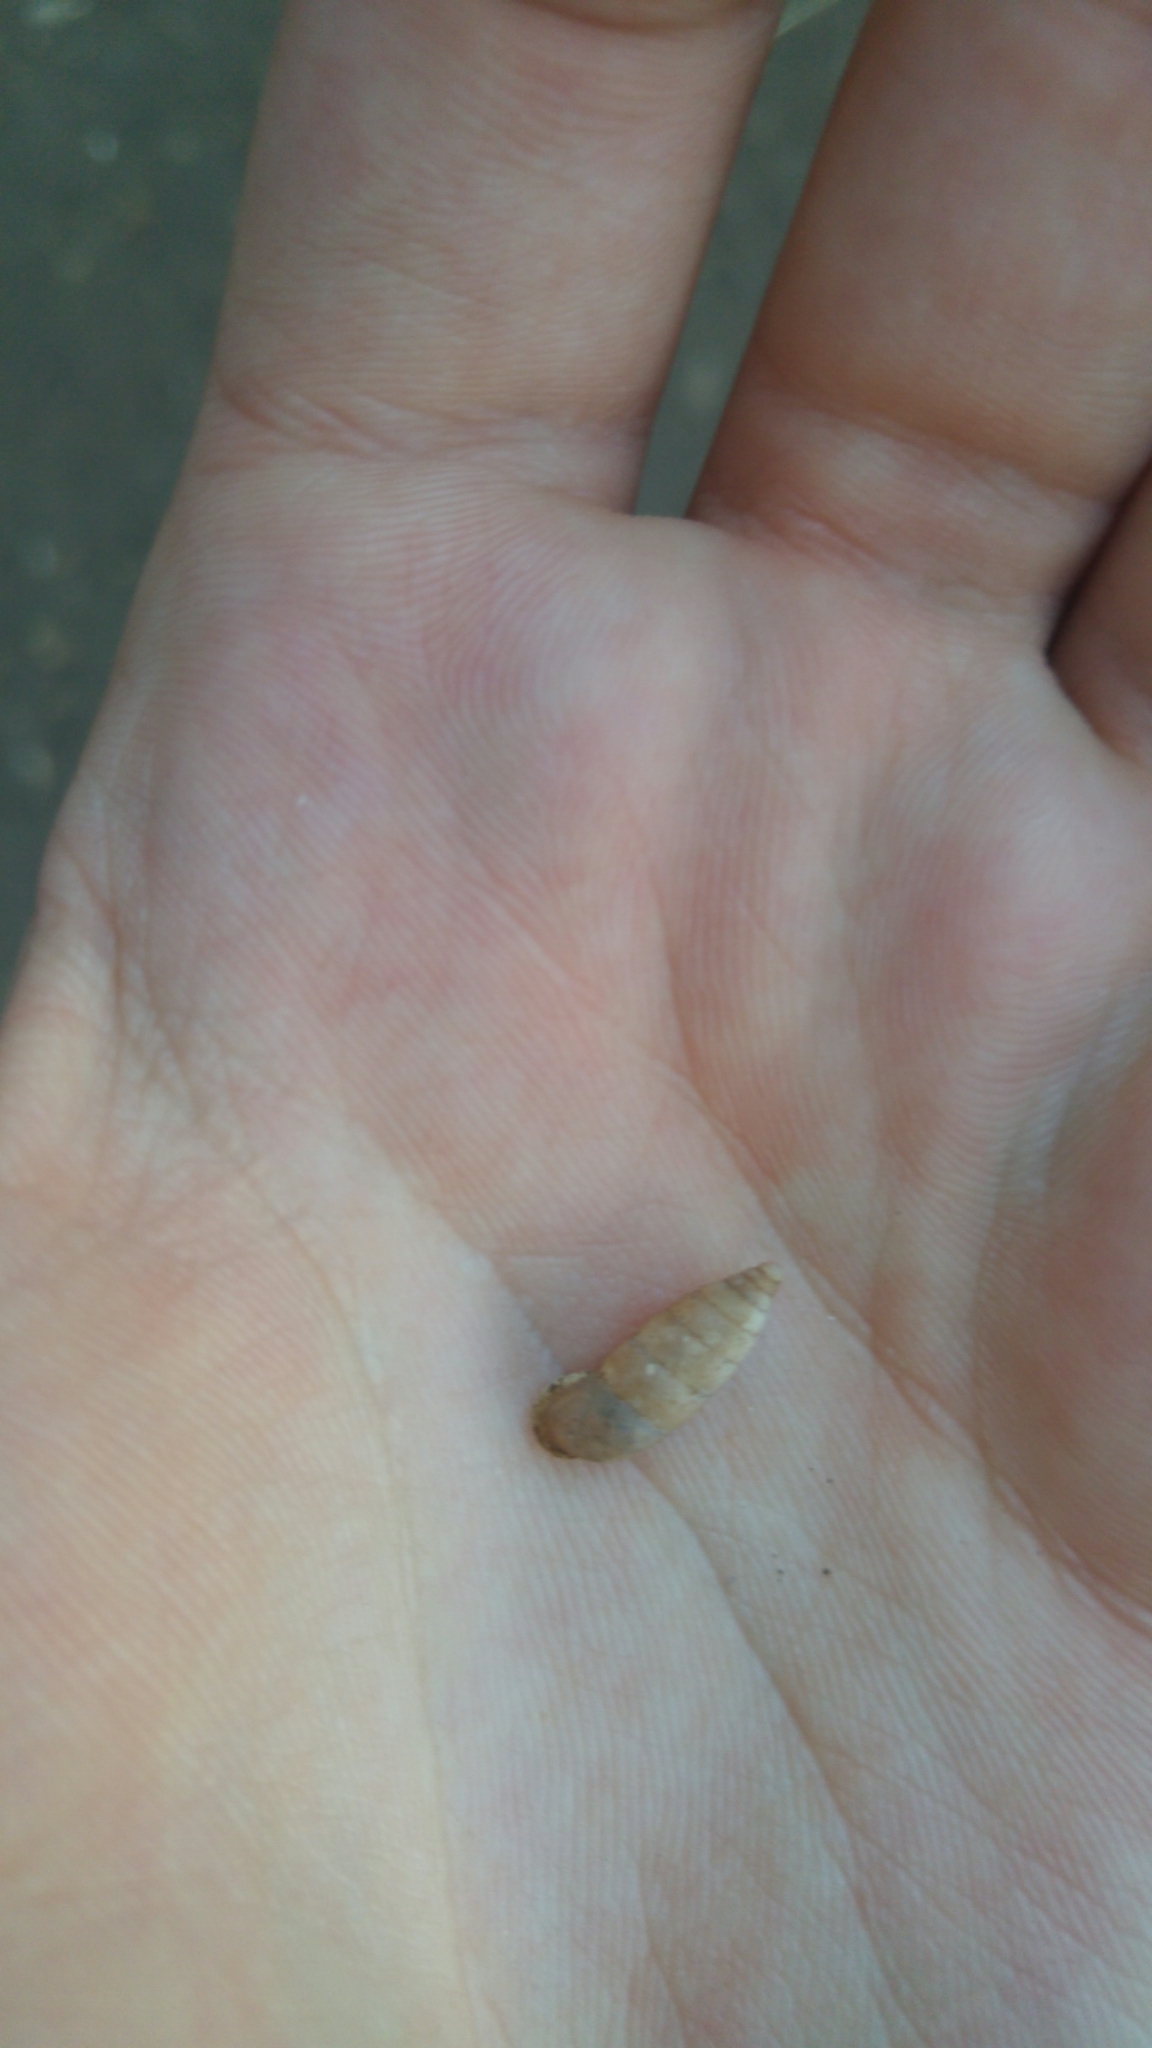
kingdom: Animalia
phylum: Mollusca
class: Gastropoda
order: Stylommatophora
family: Enidae
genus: Pene
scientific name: Pene bulimoides
